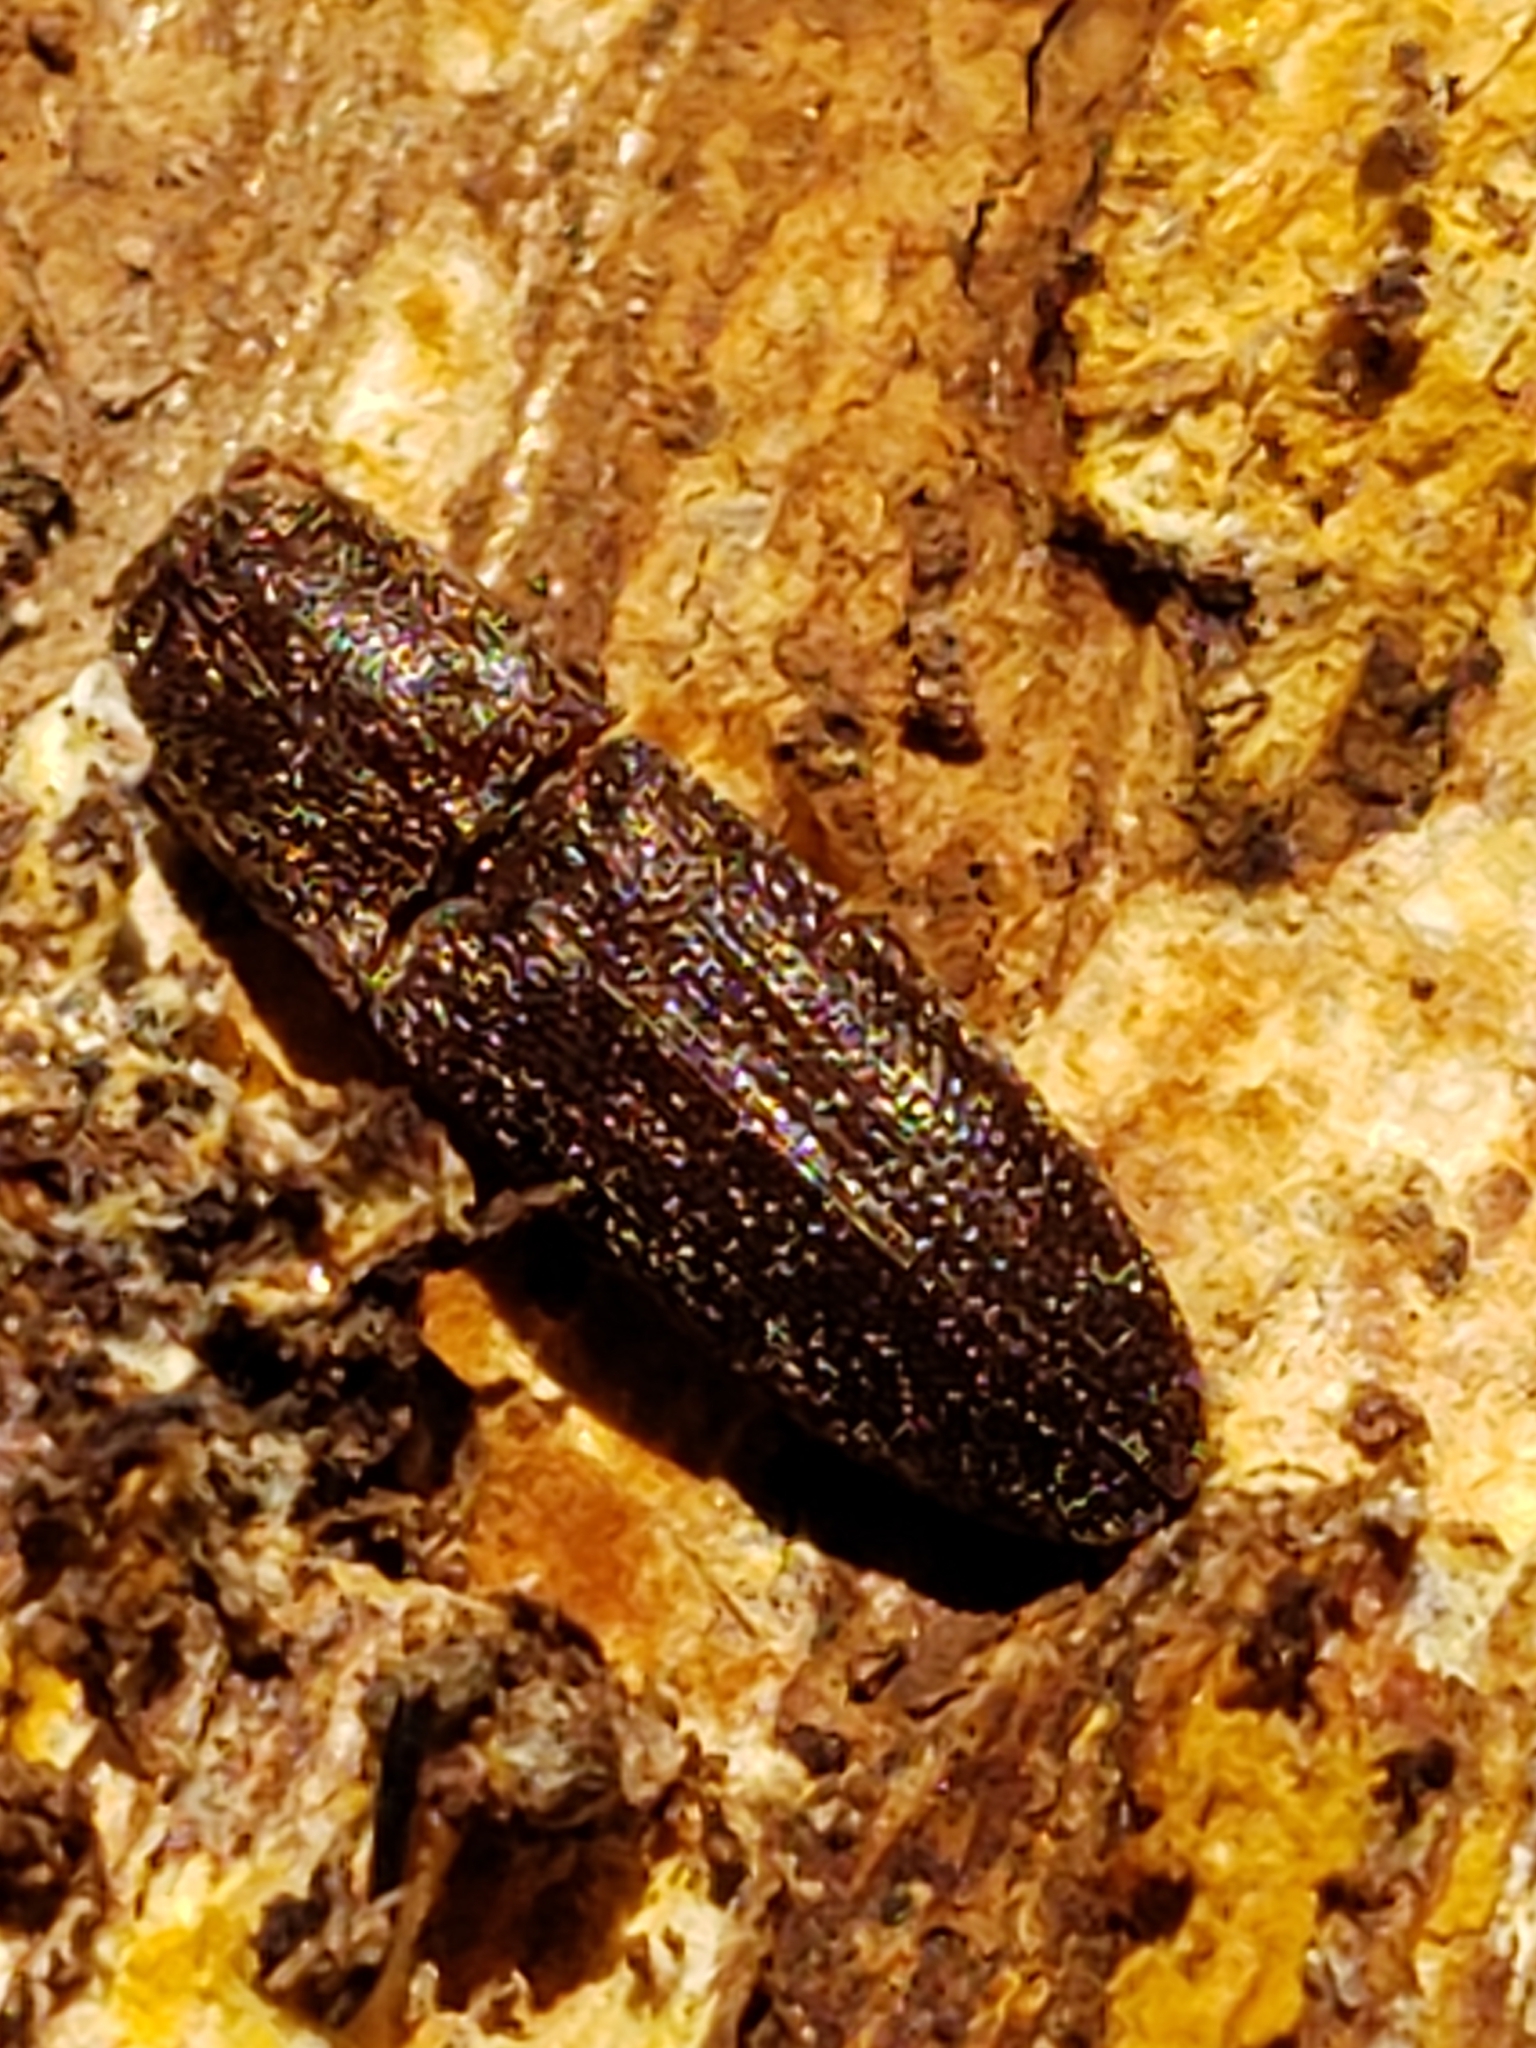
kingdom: Animalia
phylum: Arthropoda
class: Insecta
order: Coleoptera
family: Elateridae
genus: Lacon
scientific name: Lacon impressicollis
